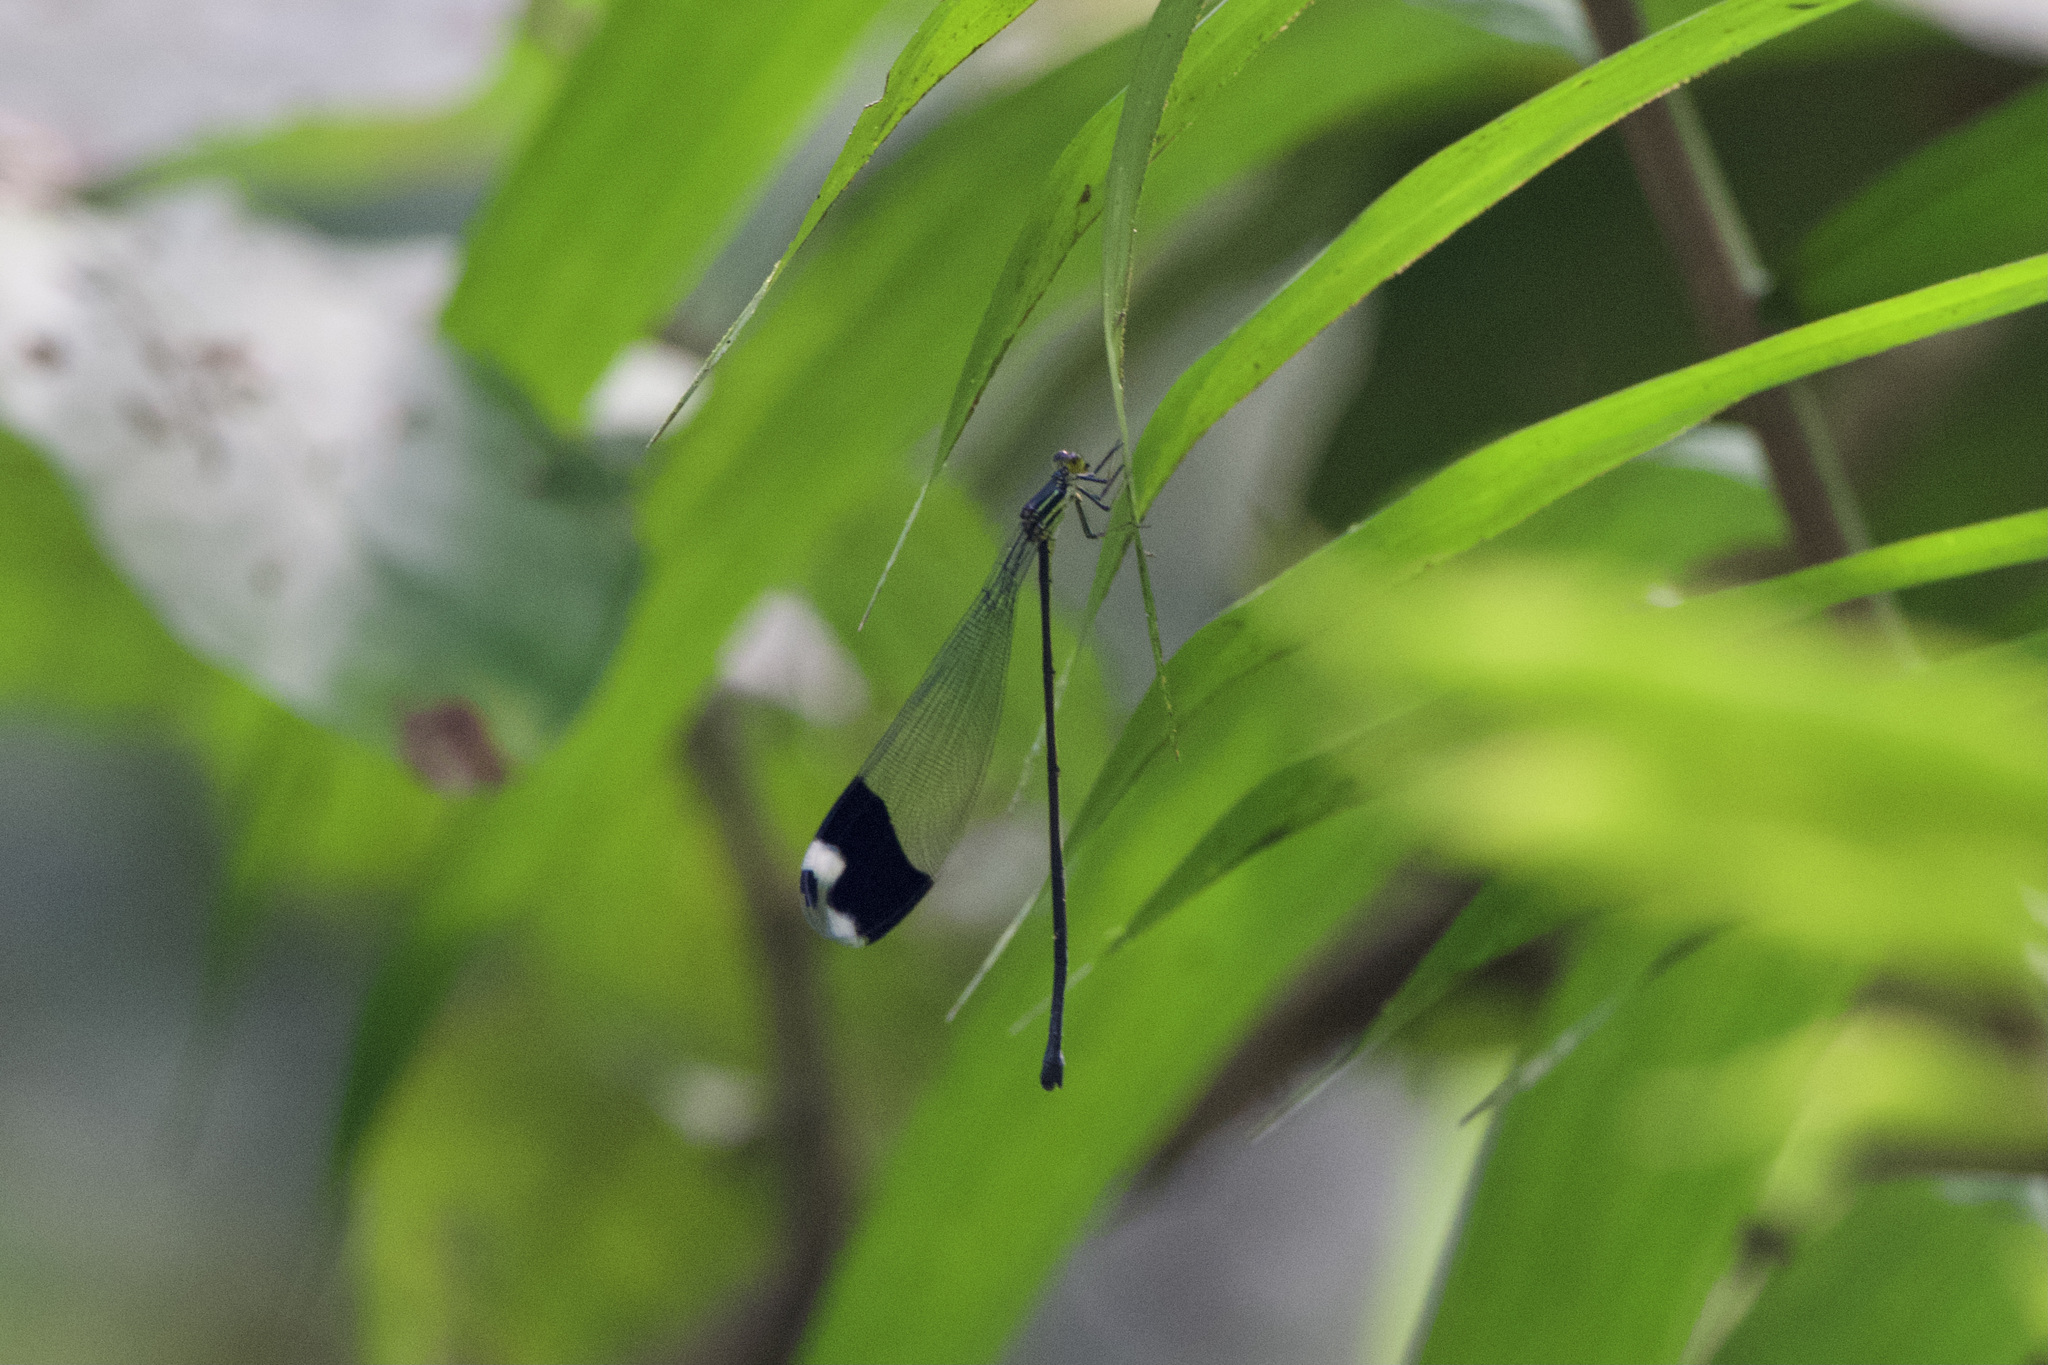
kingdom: Animalia
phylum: Arthropoda
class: Insecta
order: Odonata
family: Coenagrionidae
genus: Megaloprepus
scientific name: Megaloprepus caerulatus
